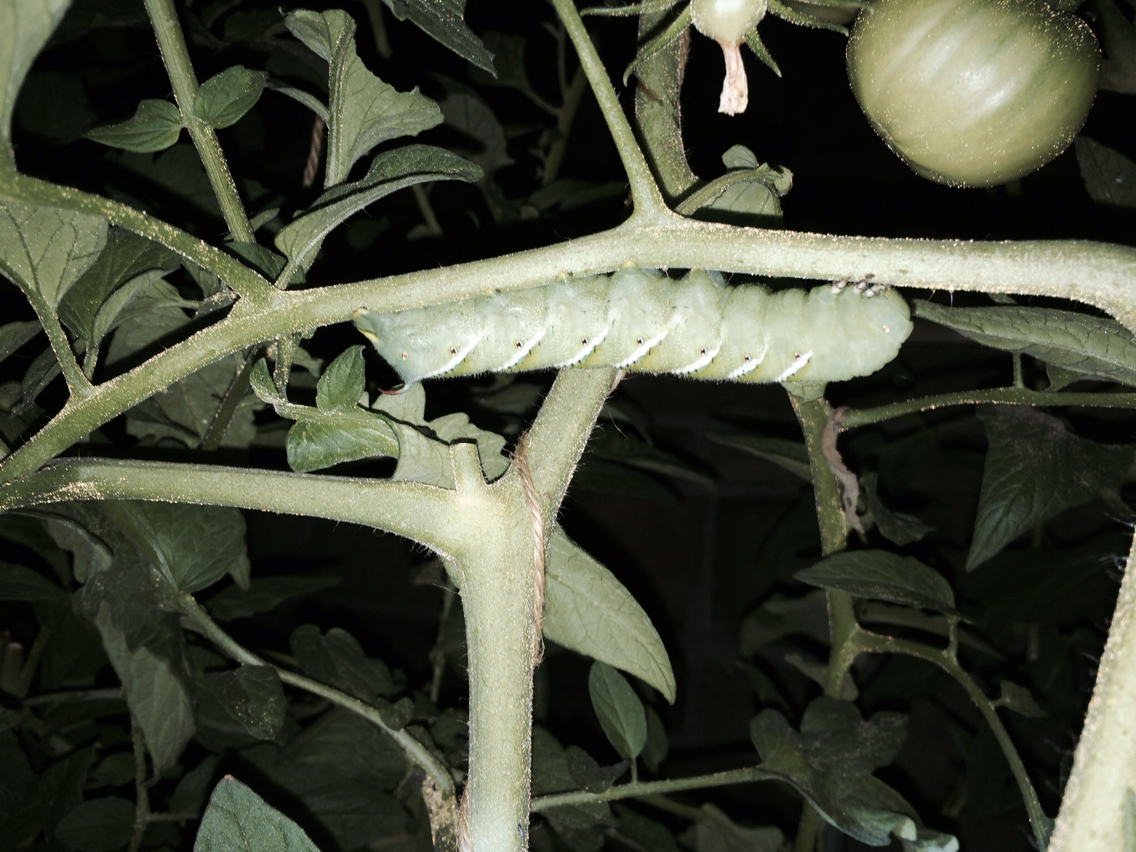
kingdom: Animalia
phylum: Arthropoda
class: Insecta
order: Lepidoptera
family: Sphingidae
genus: Manduca
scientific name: Manduca sexta
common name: Carolina sphinx
